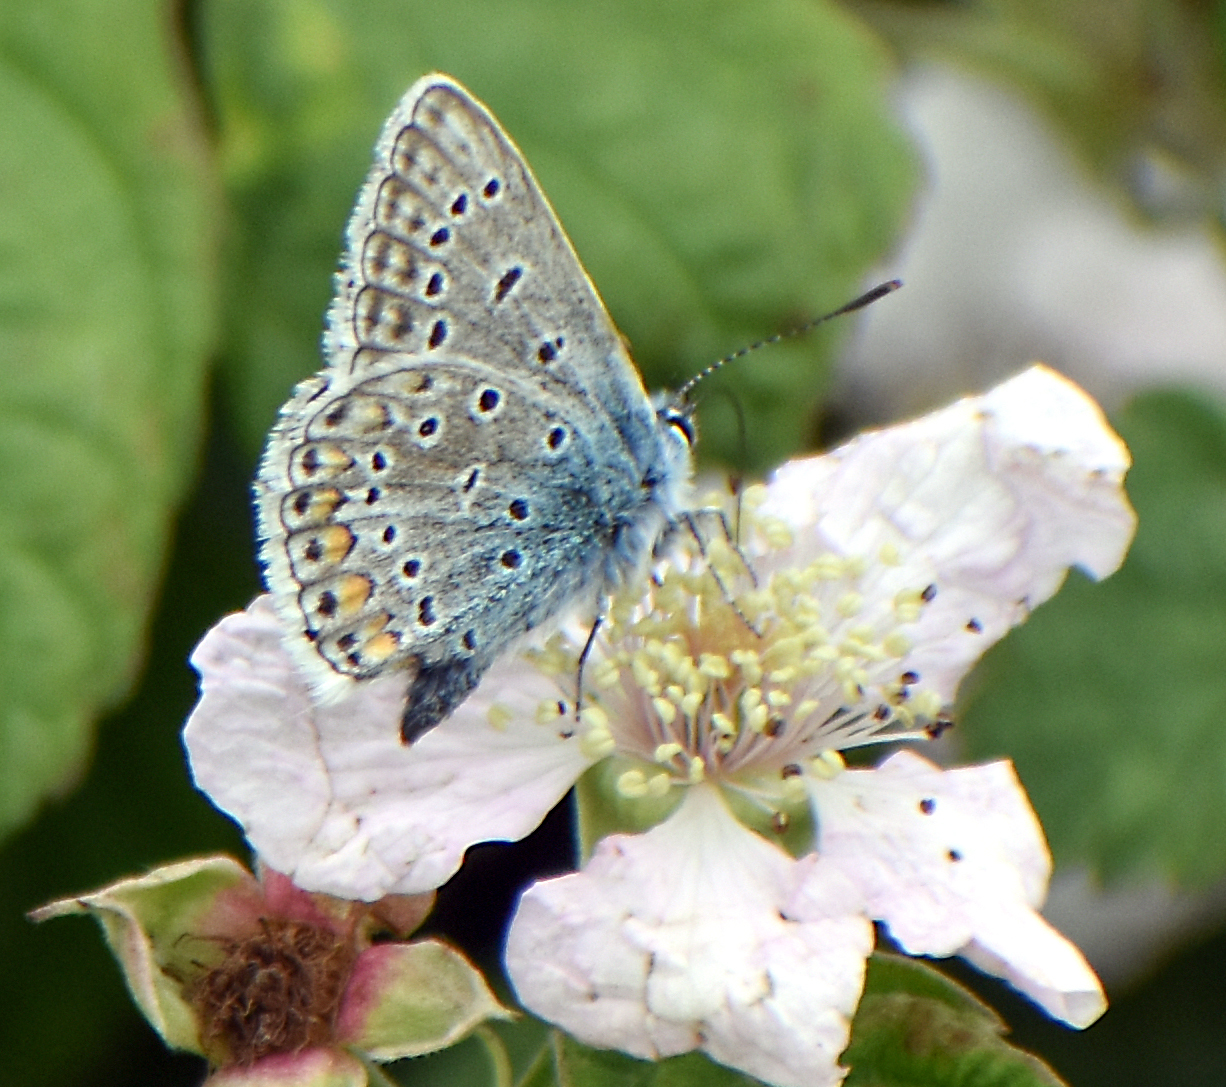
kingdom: Animalia
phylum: Arthropoda
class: Insecta
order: Lepidoptera
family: Lycaenidae
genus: Polyommatus
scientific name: Polyommatus icarus
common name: Common blue
